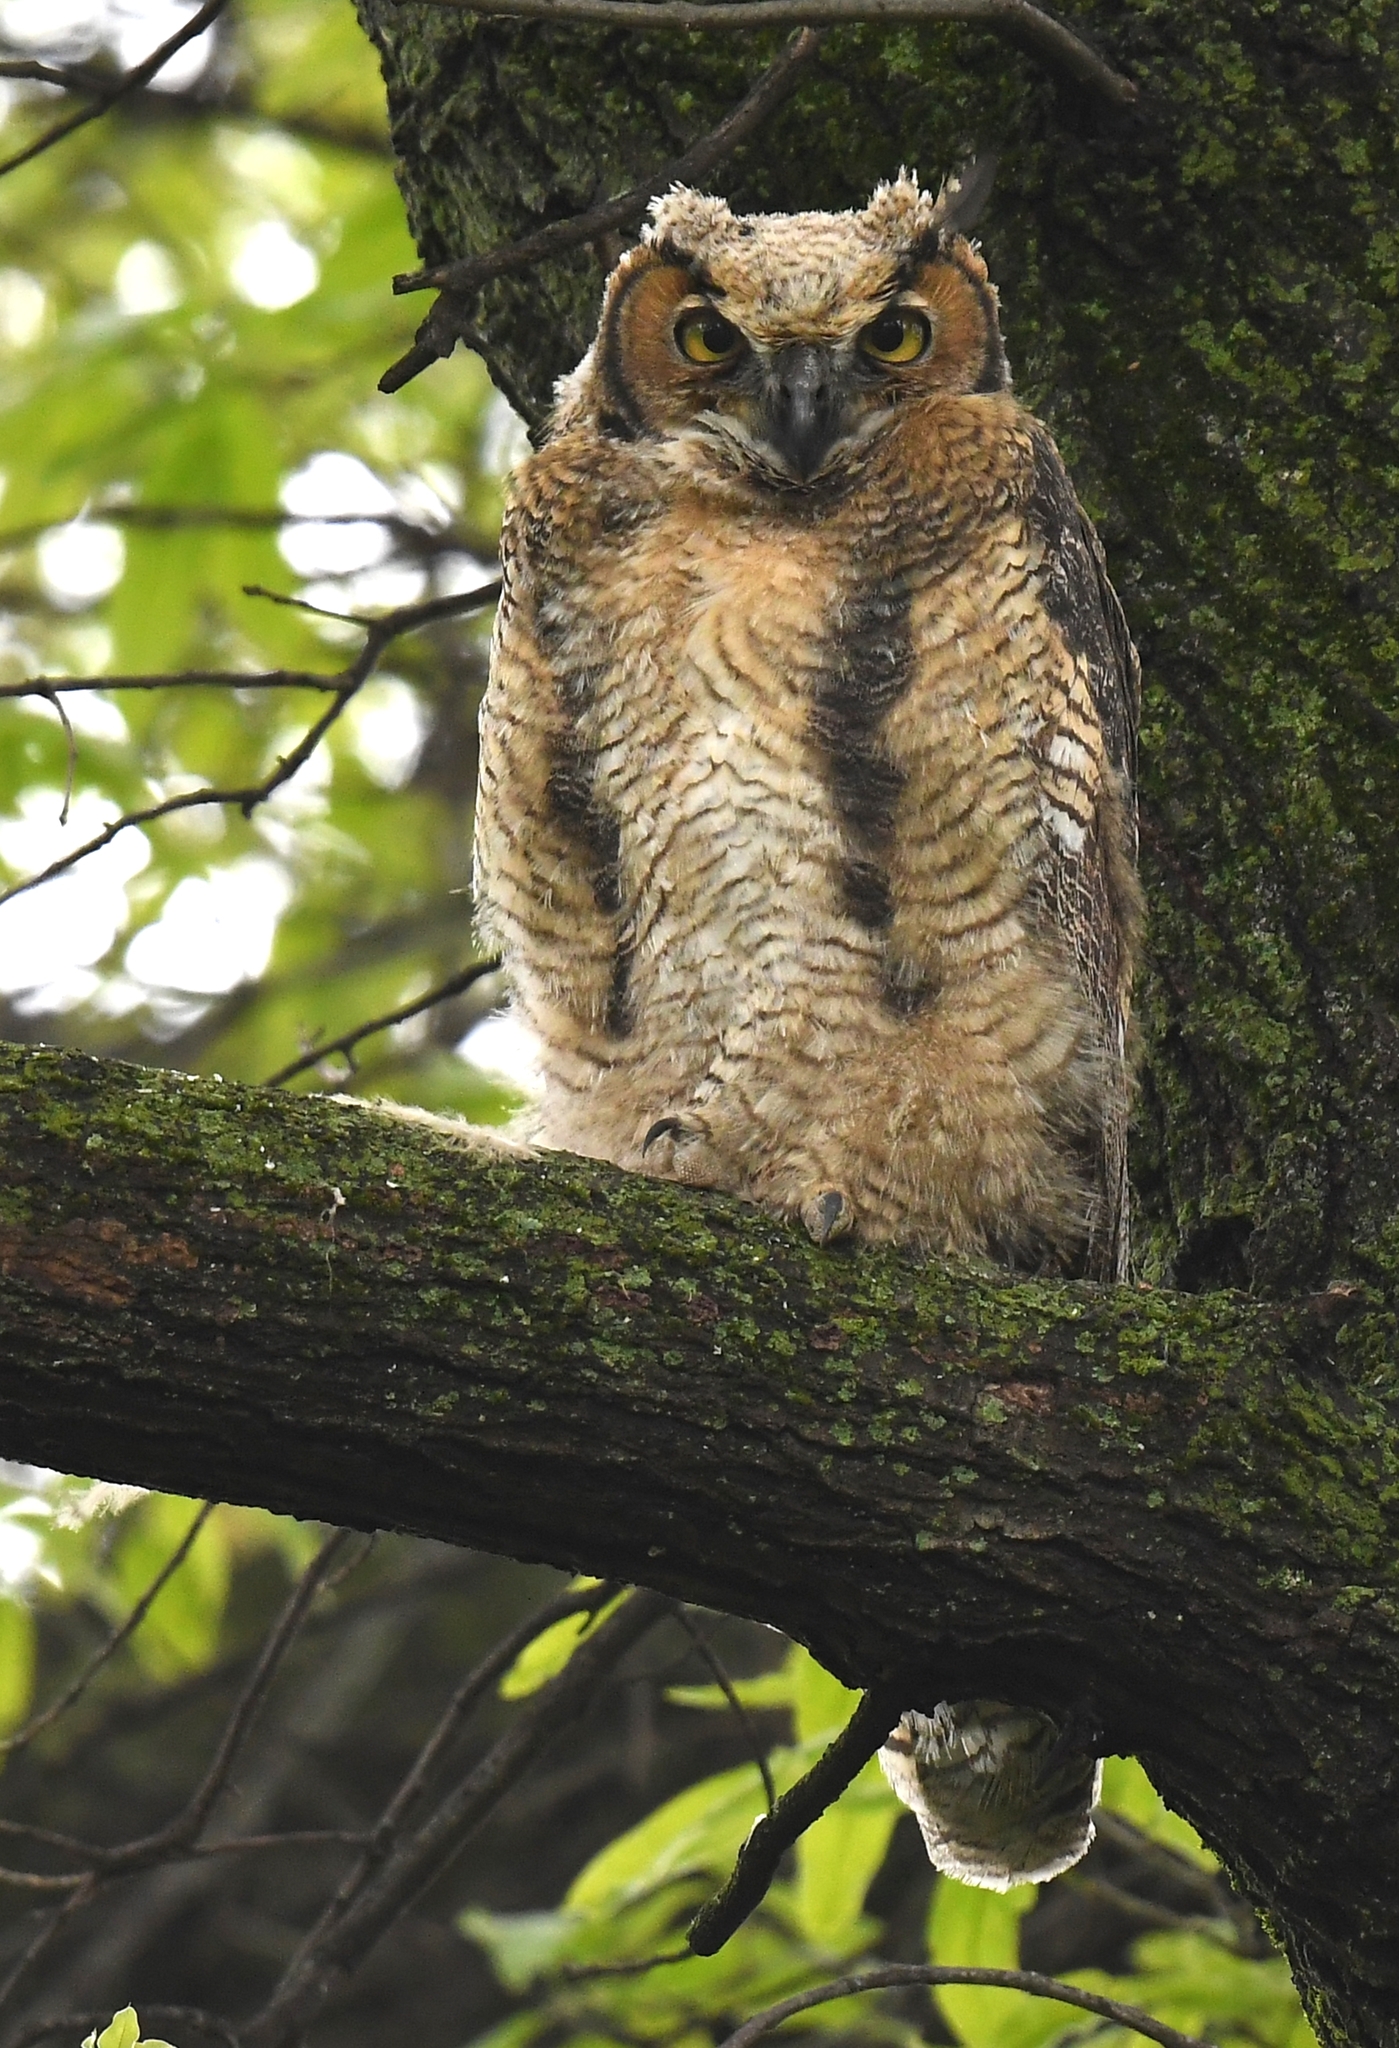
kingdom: Animalia
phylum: Chordata
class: Aves
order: Strigiformes
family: Strigidae
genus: Bubo
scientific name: Bubo virginianus
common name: Great horned owl
